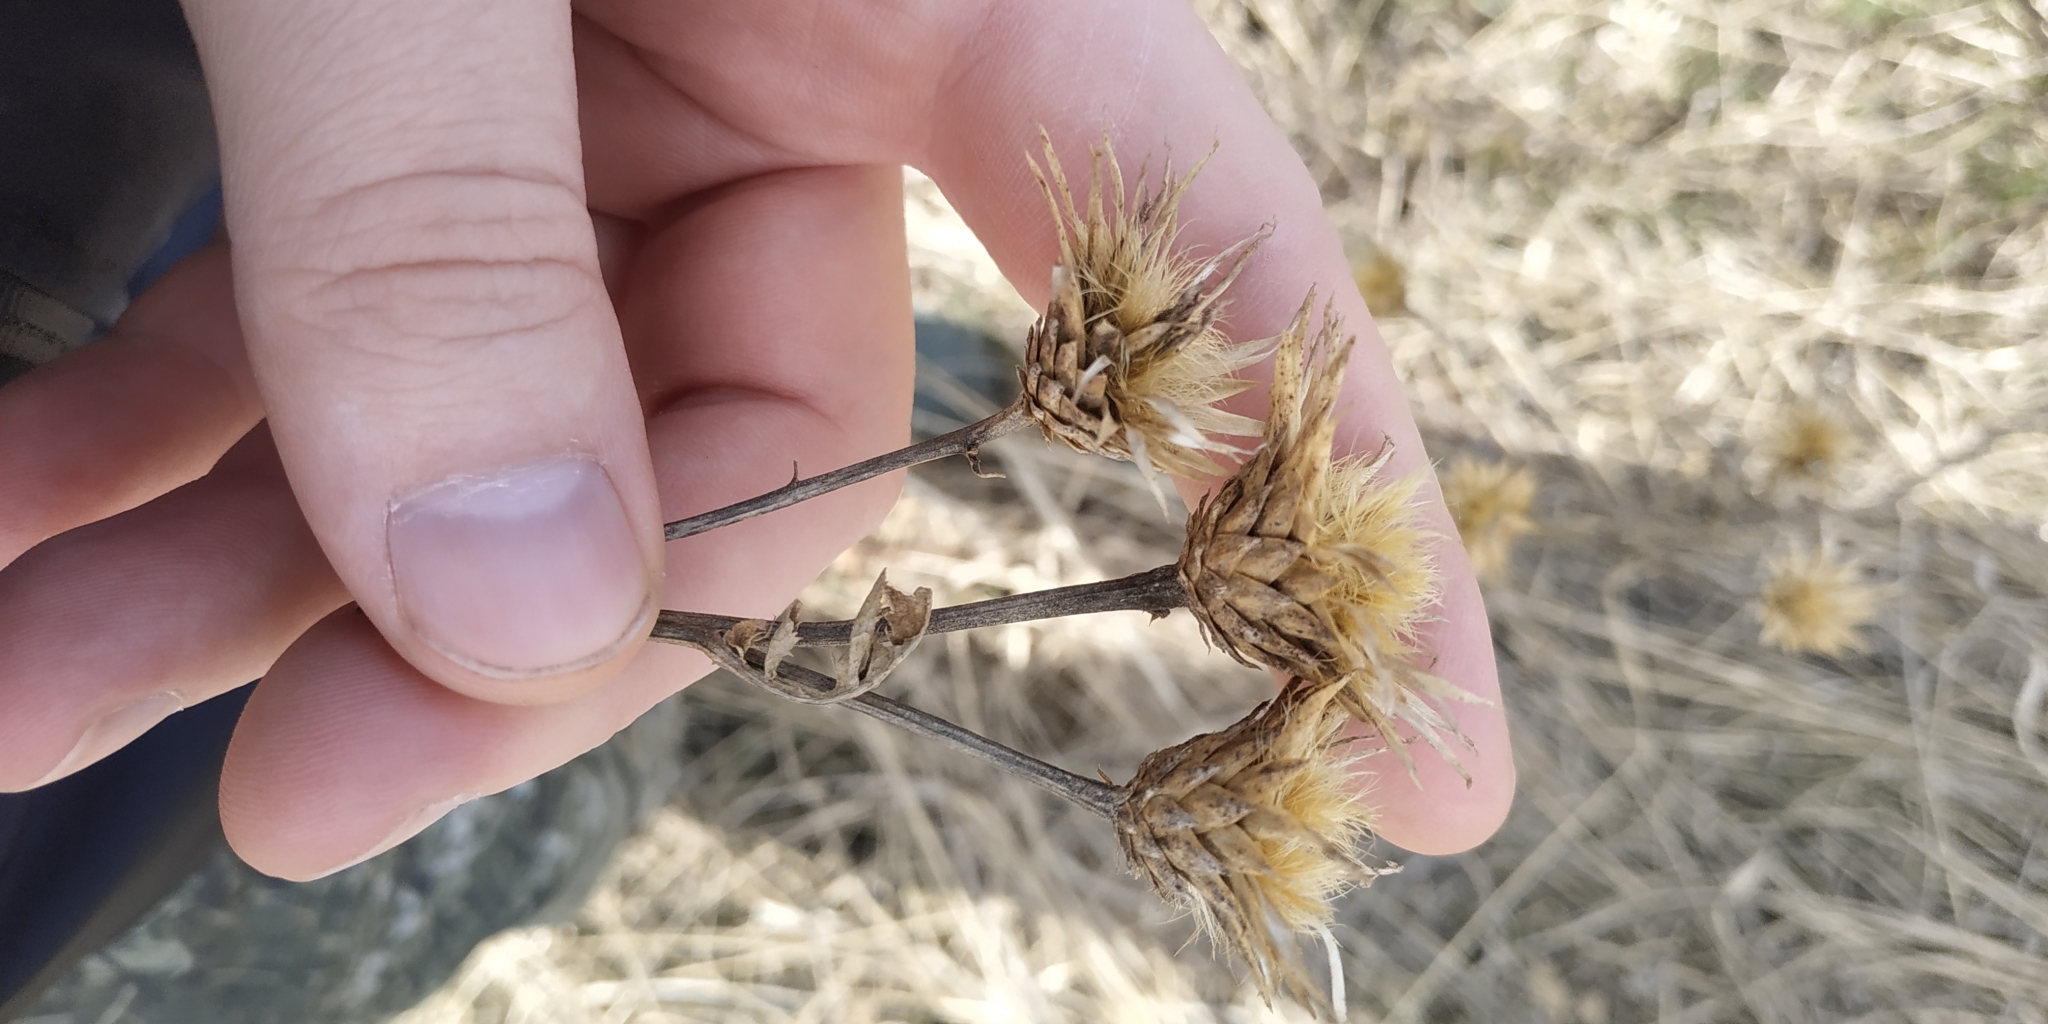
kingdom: Plantae
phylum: Tracheophyta
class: Magnoliopsida
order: Asterales
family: Asteraceae
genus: Serratula
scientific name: Serratula coronata
